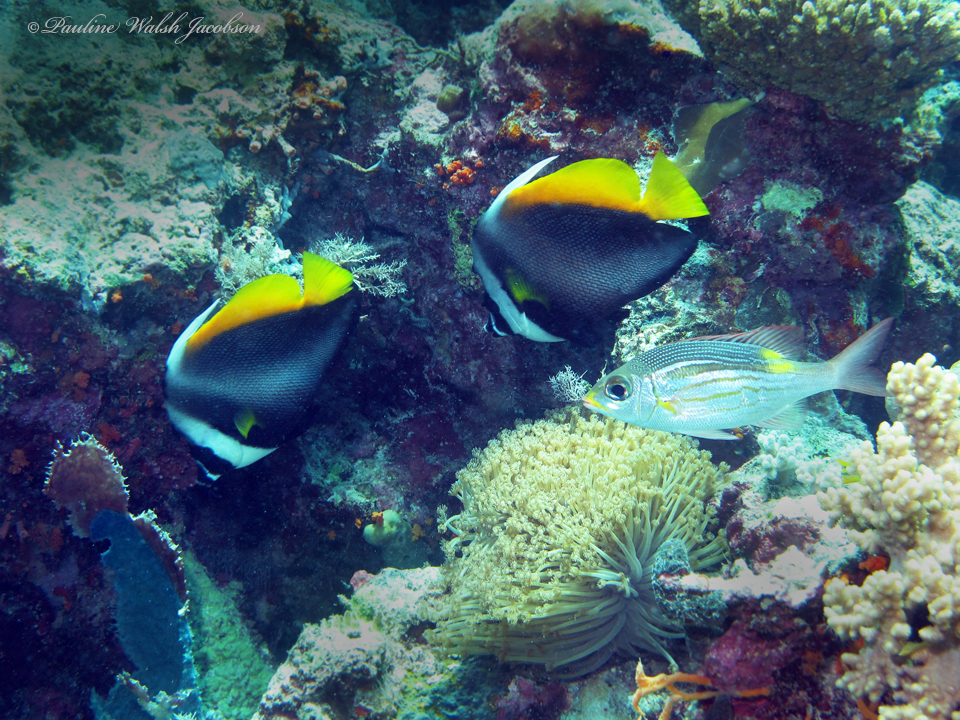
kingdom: Animalia
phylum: Chordata
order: Perciformes
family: Chaetodontidae
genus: Heniochus
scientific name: Heniochus singularius
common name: Singular bannerfish
